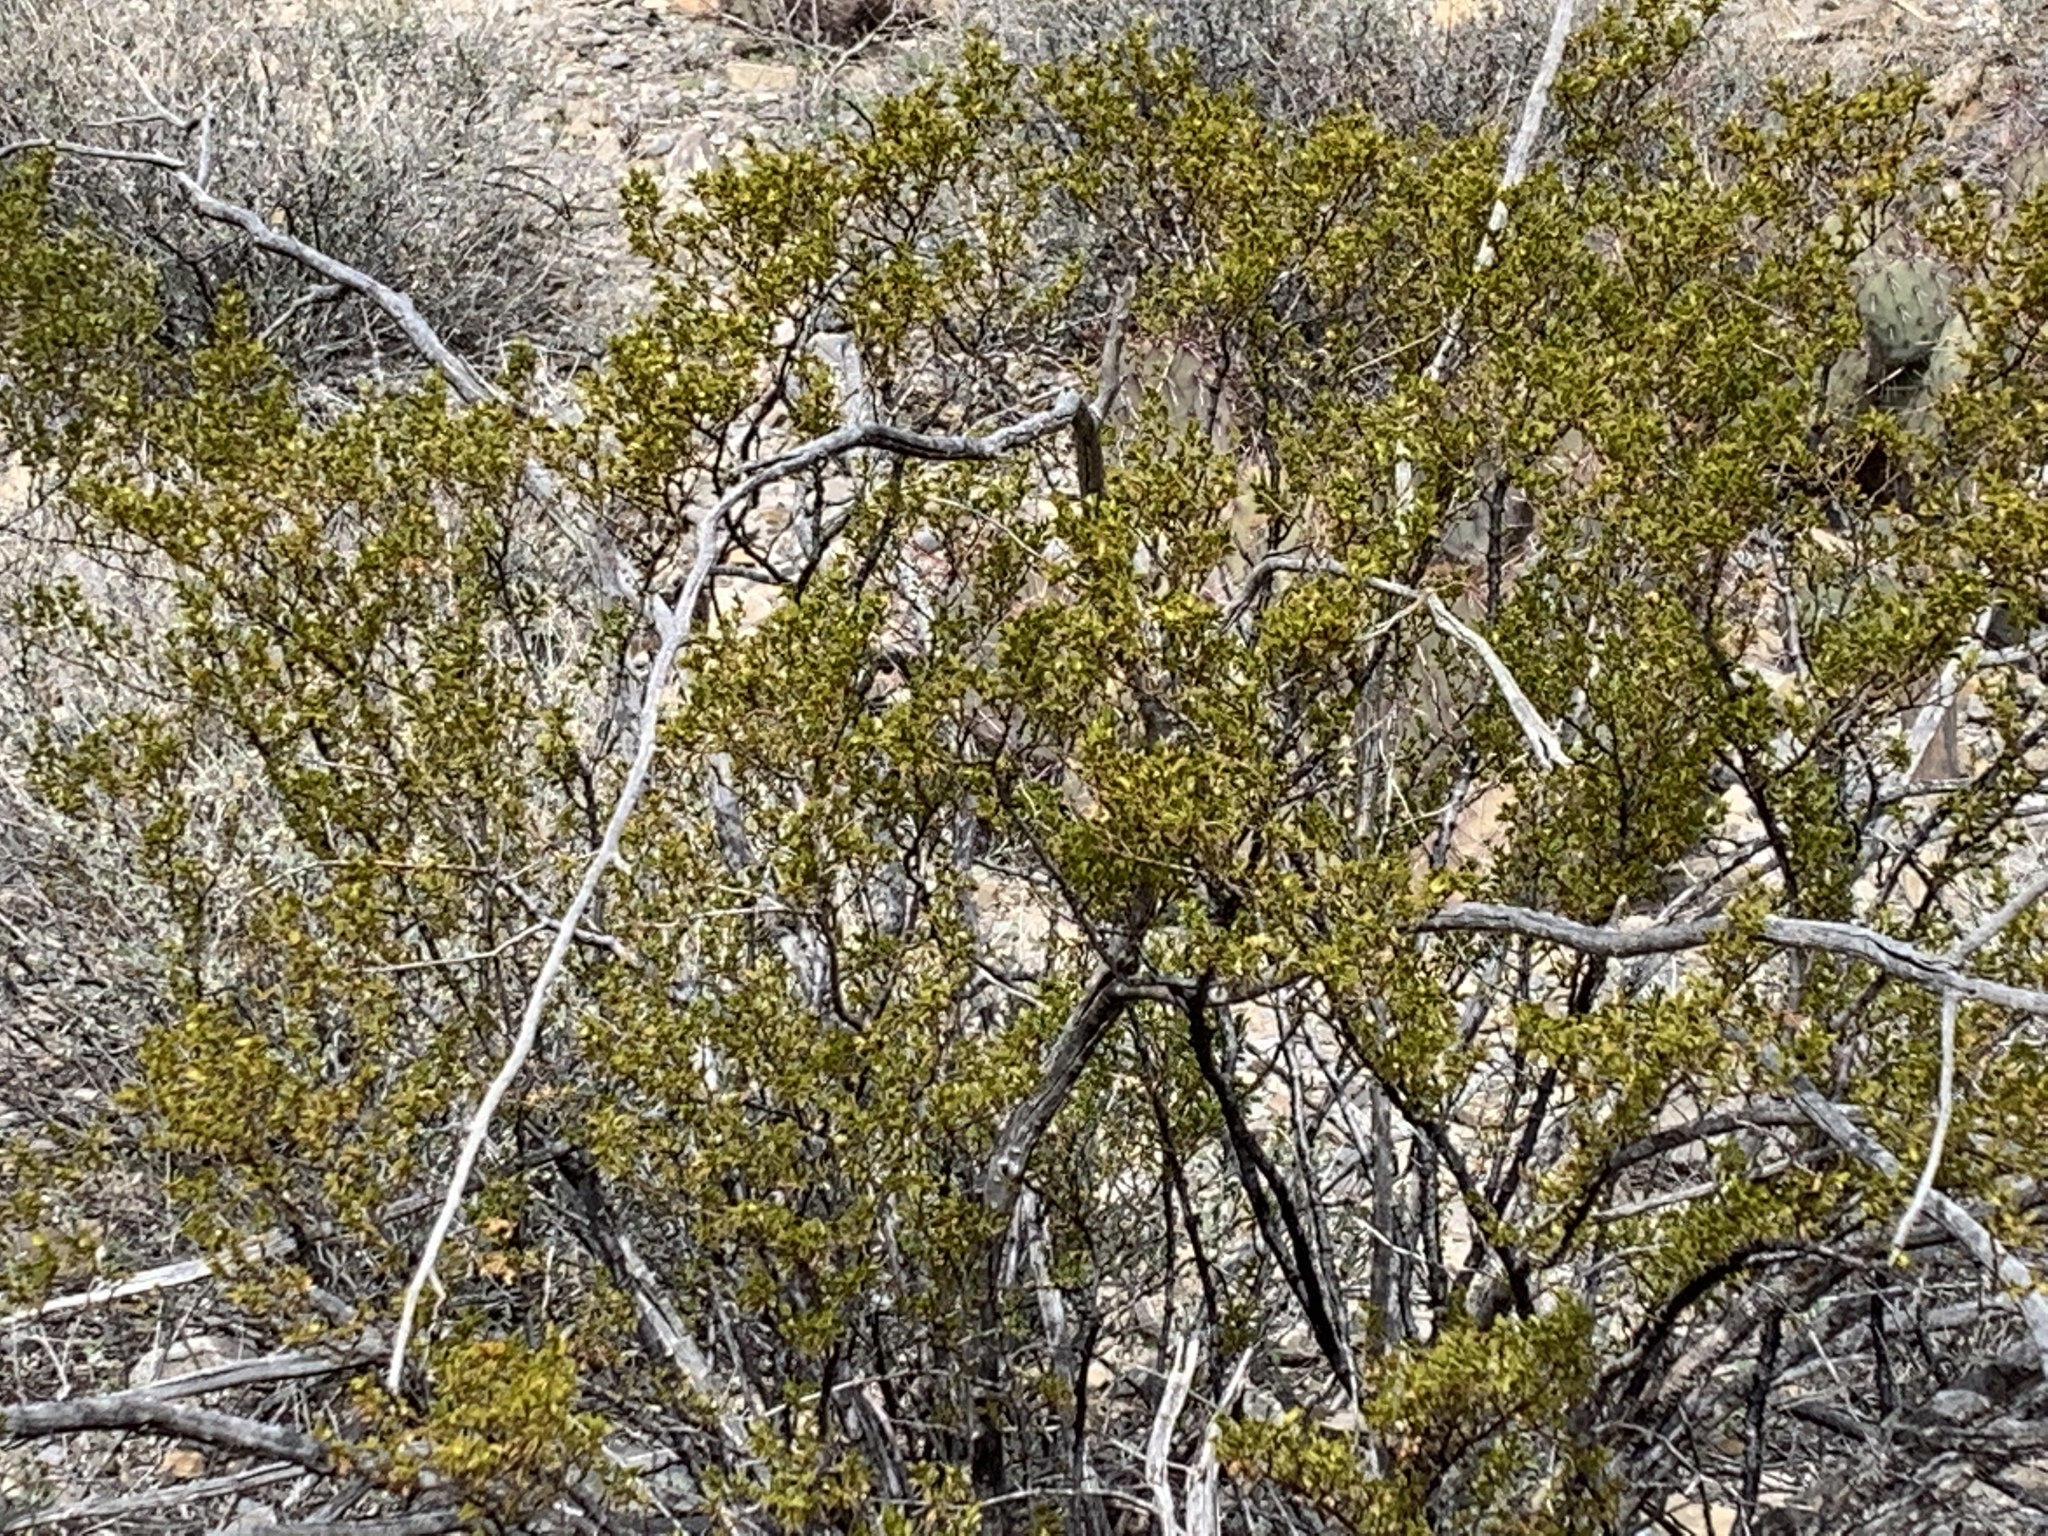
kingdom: Plantae
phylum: Tracheophyta
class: Magnoliopsida
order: Zygophyllales
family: Zygophyllaceae
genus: Larrea
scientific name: Larrea tridentata
